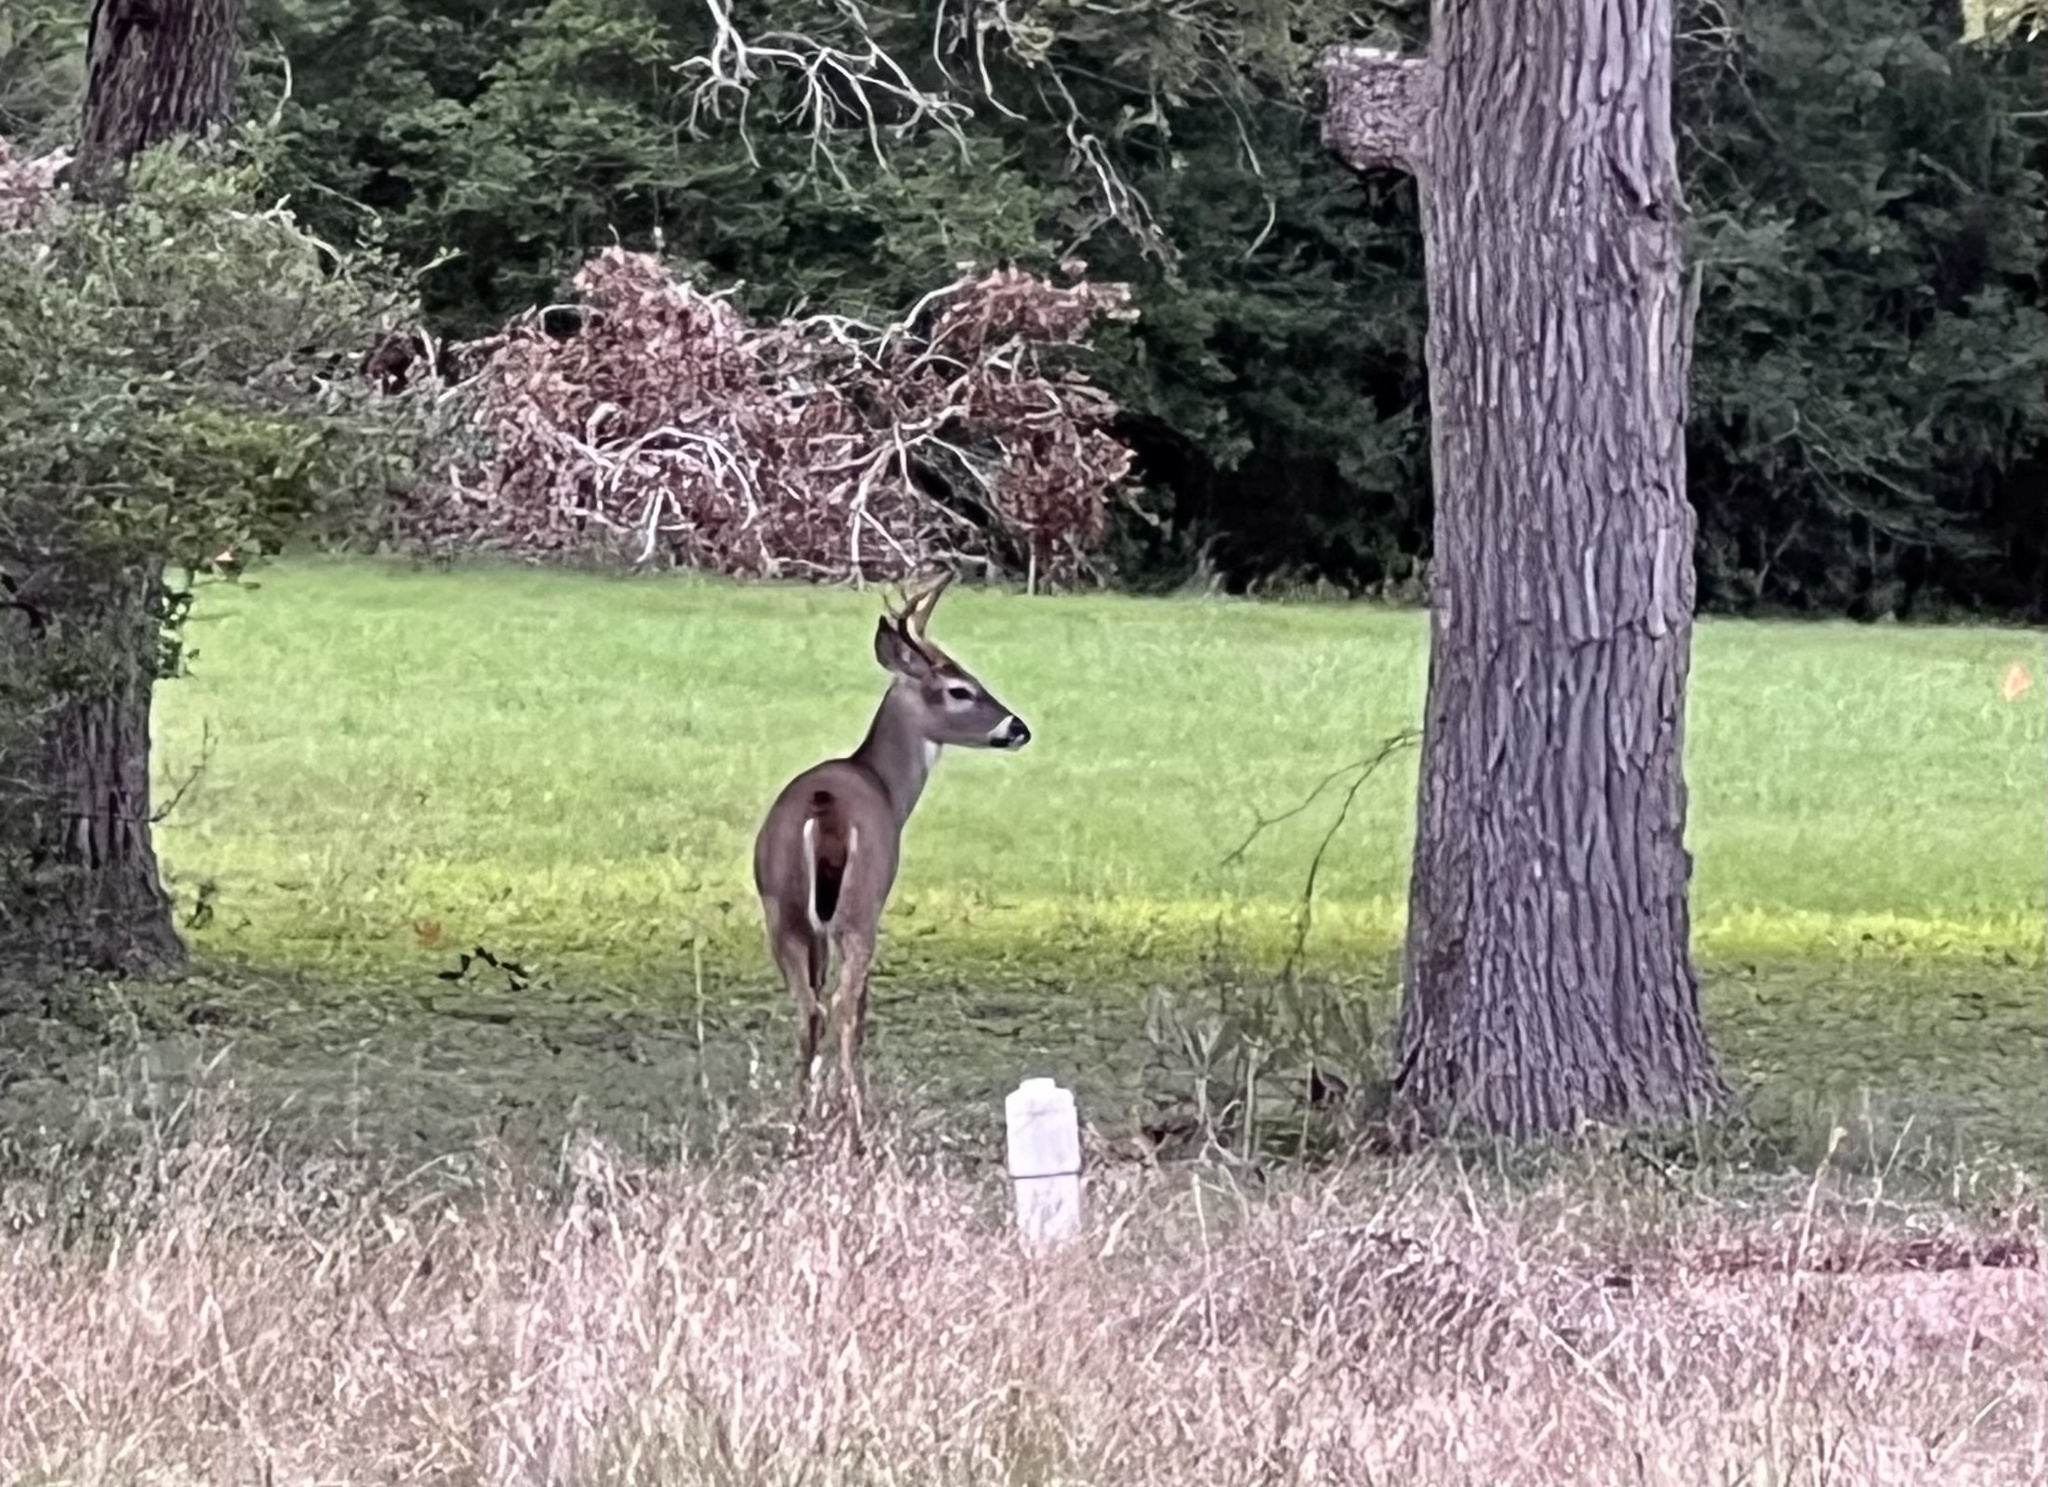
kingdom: Animalia
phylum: Chordata
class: Mammalia
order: Artiodactyla
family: Cervidae
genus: Odocoileus
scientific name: Odocoileus virginianus
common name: White-tailed deer
